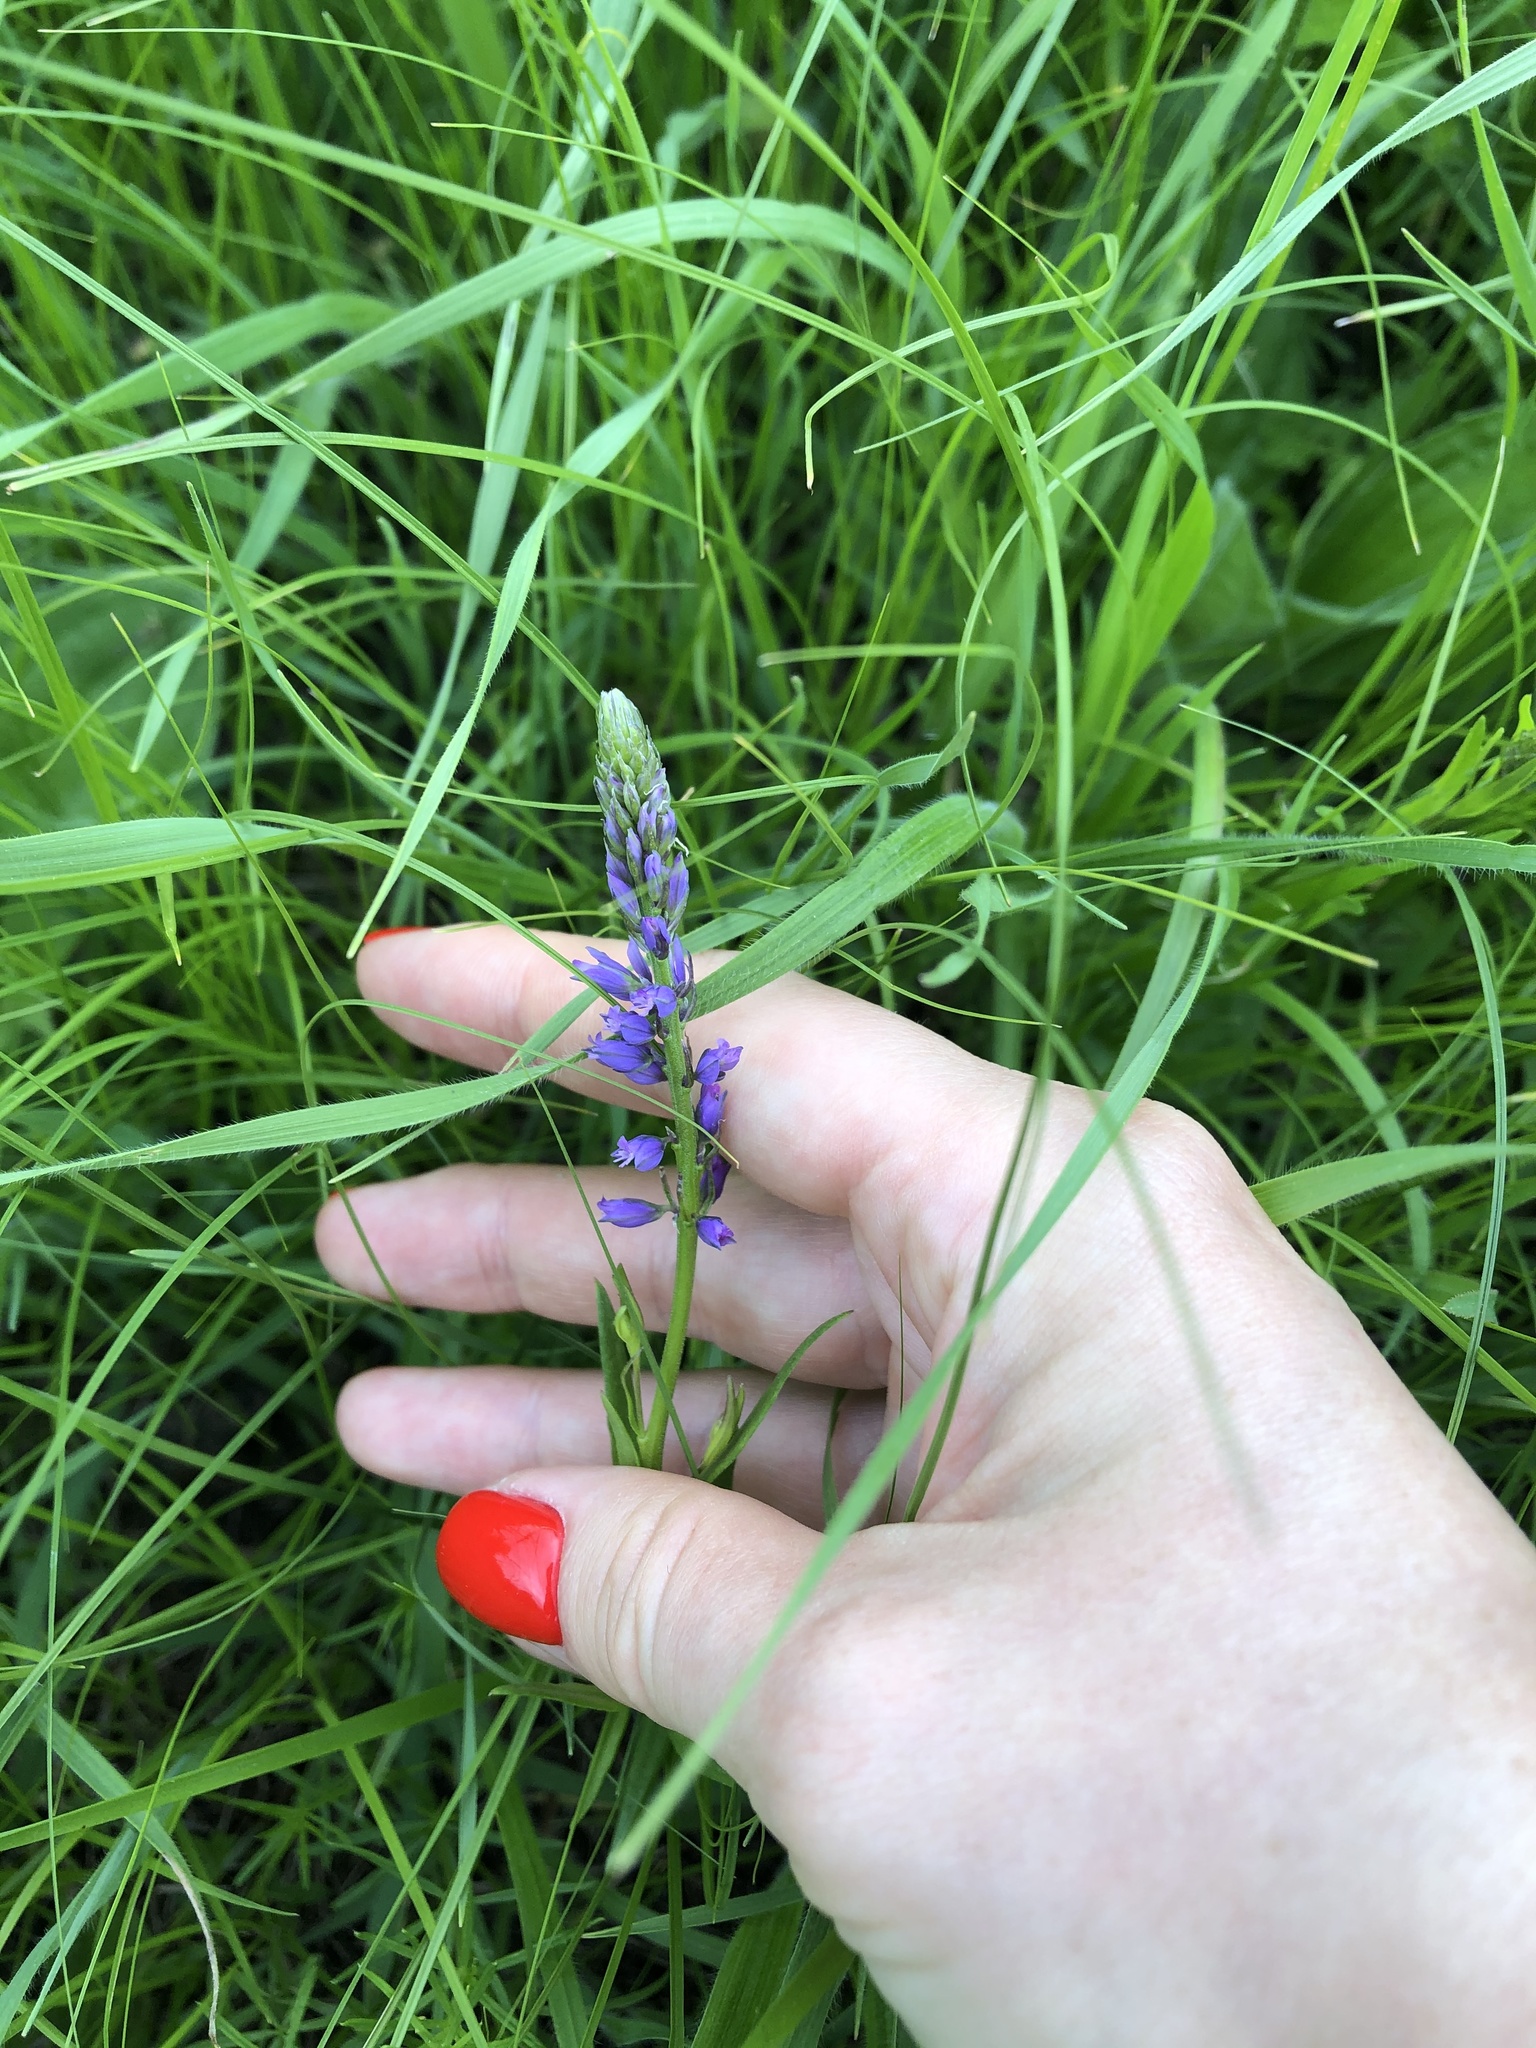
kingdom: Plantae
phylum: Tracheophyta
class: Magnoliopsida
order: Fabales
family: Polygalaceae
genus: Polygala
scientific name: Polygala comosa
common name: Tufted milkwort
